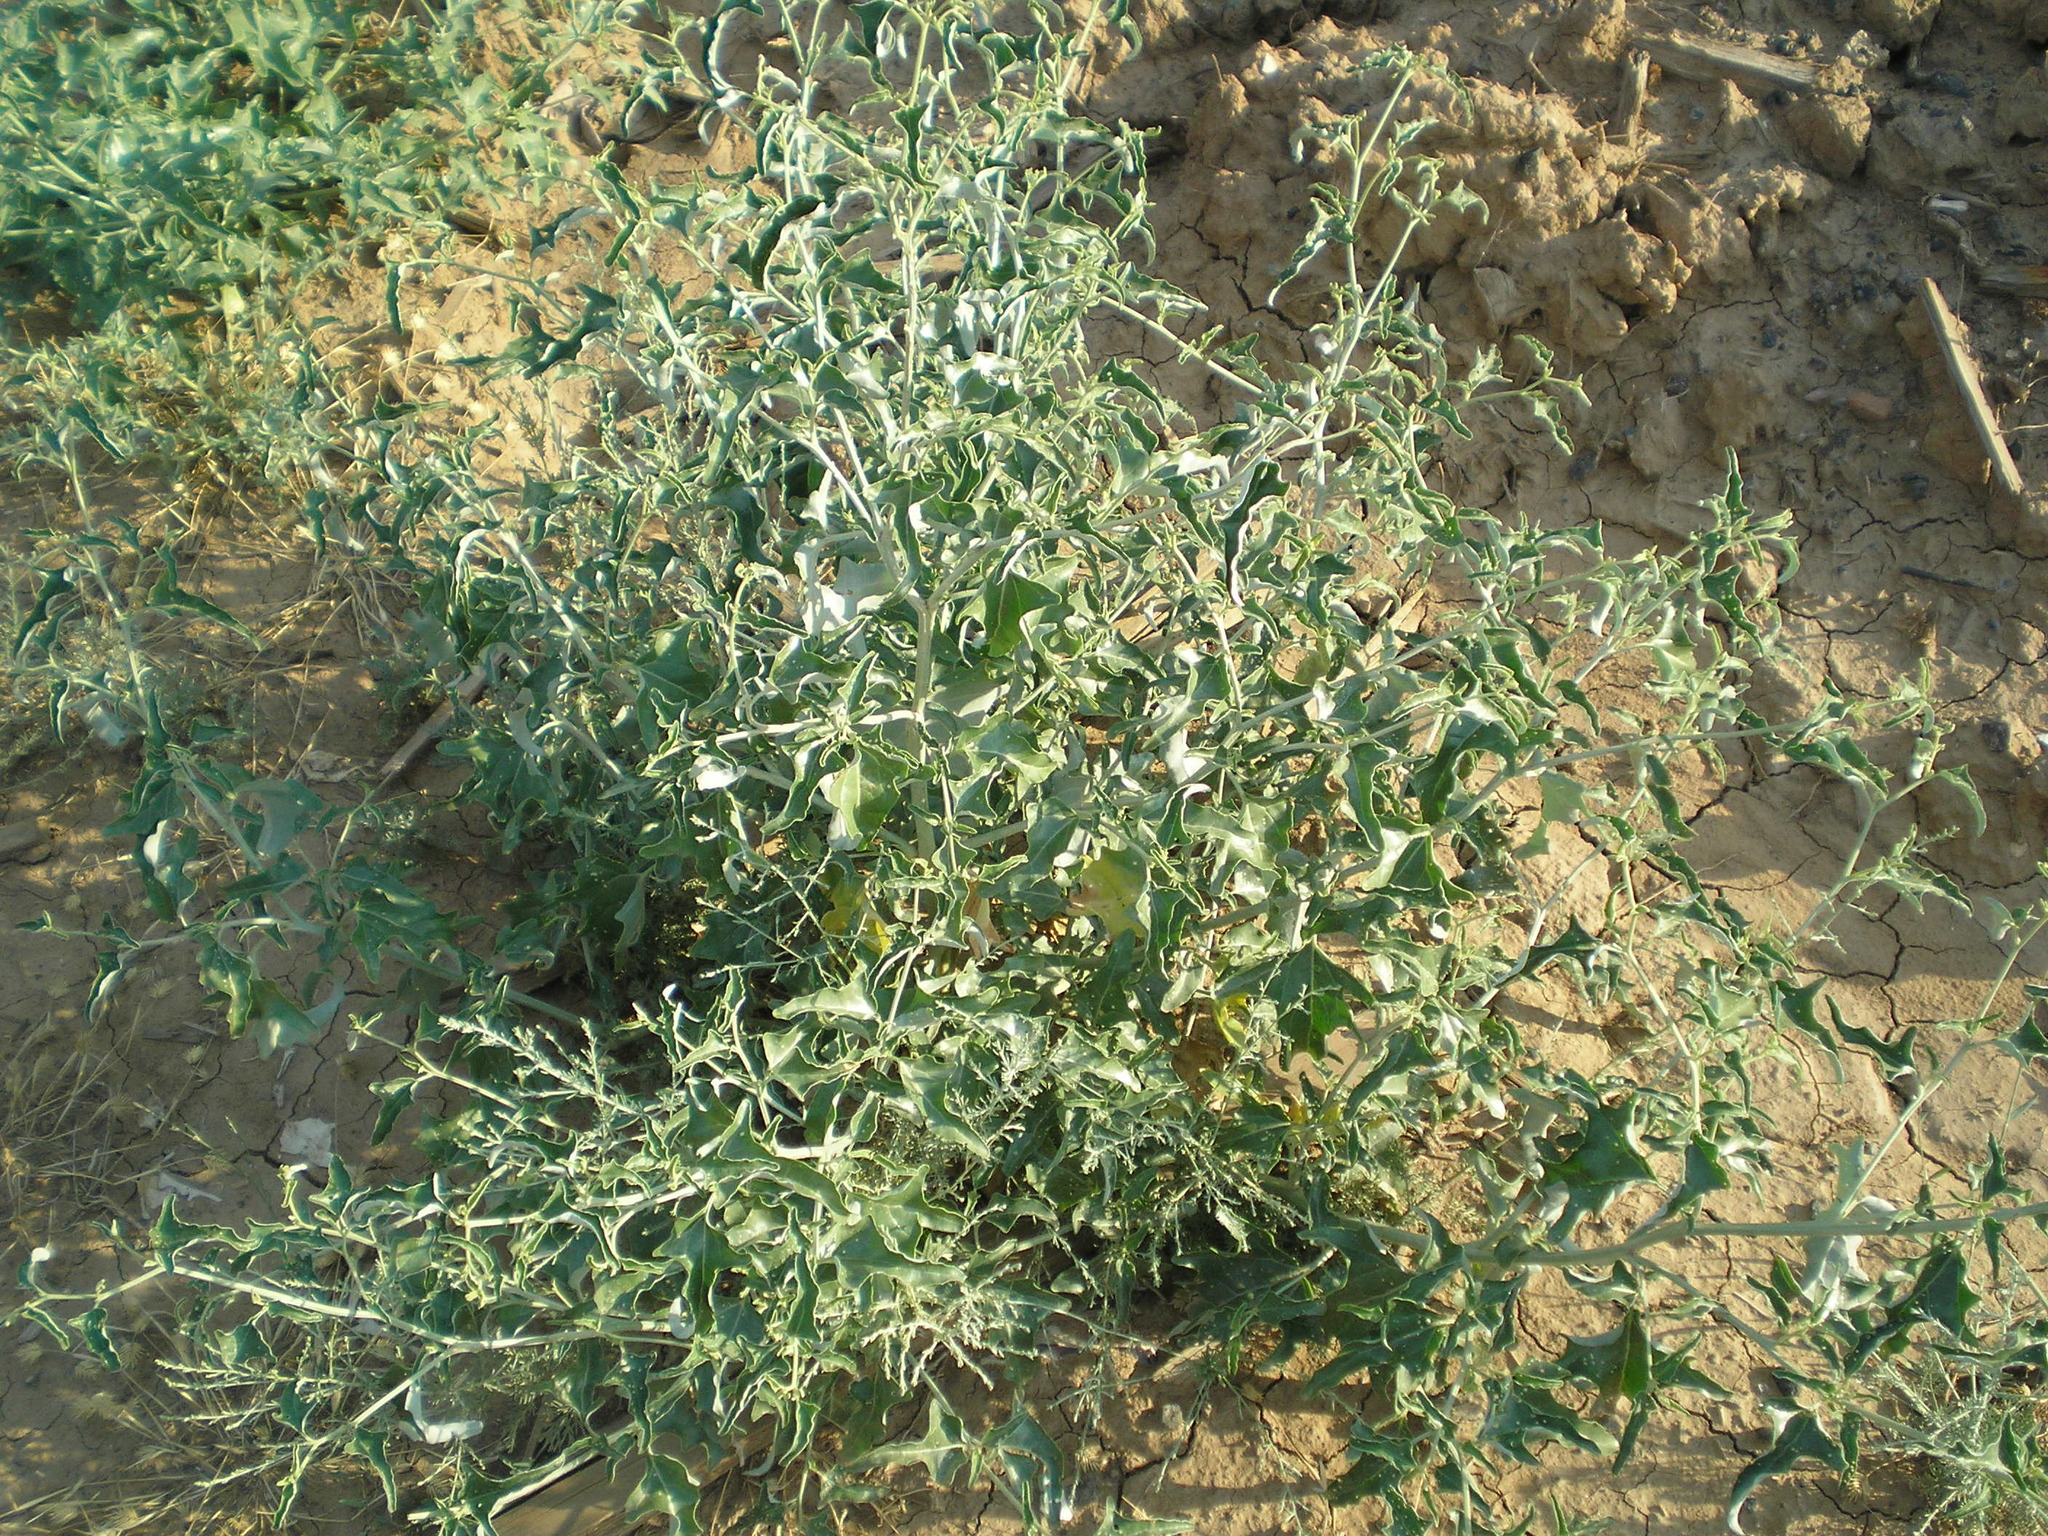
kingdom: Plantae
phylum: Tracheophyta
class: Magnoliopsida
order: Caryophyllales
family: Amaranthaceae
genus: Atriplex
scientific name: Atriplex aucheri
